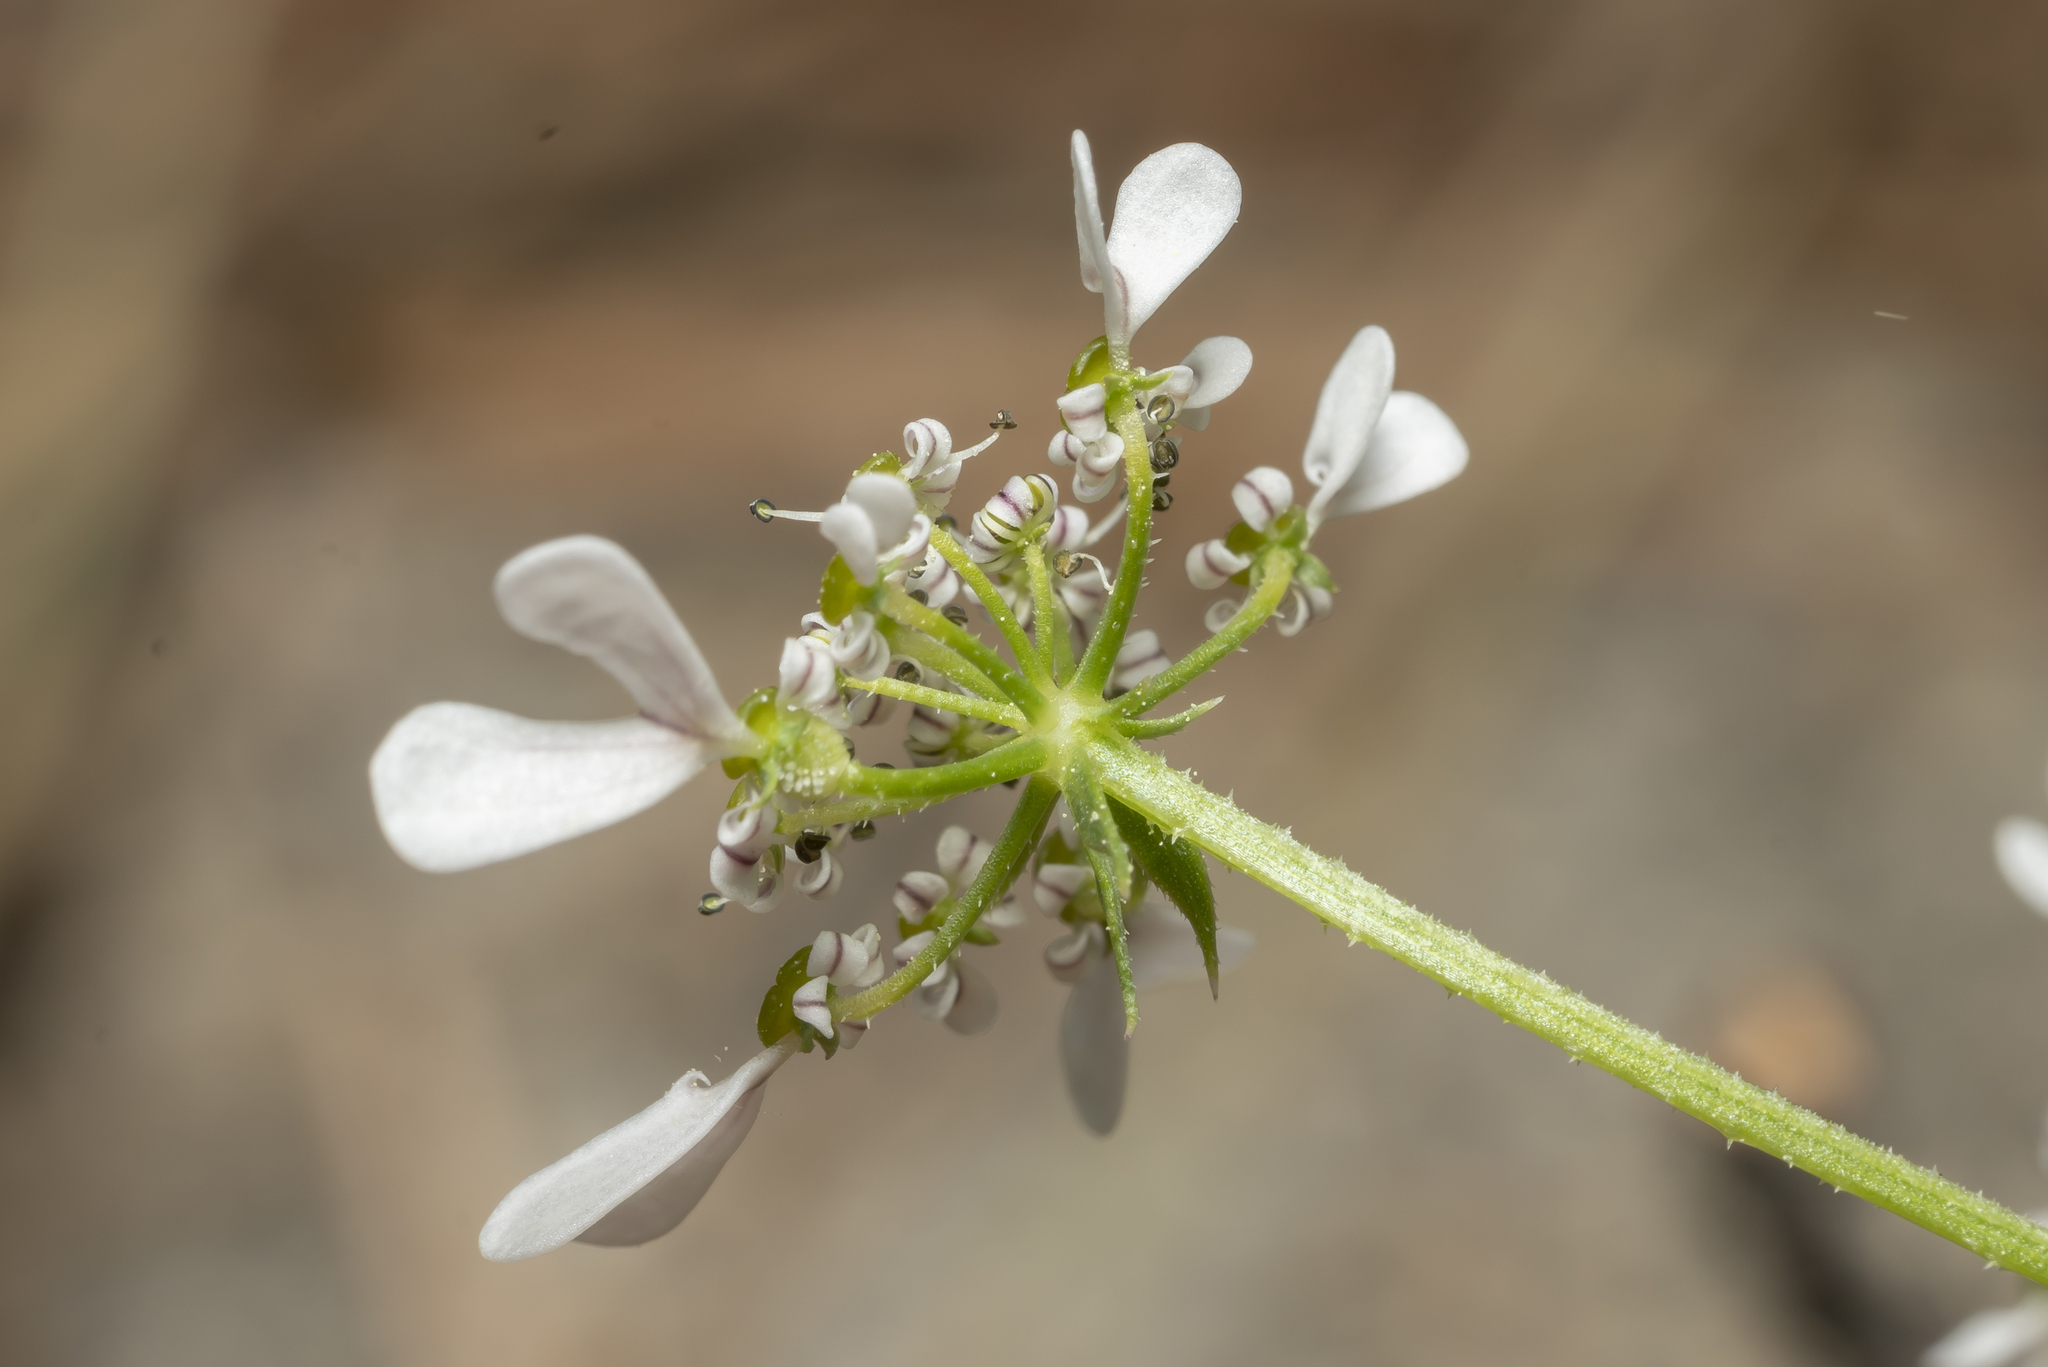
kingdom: Plantae
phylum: Tracheophyta
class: Magnoliopsida
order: Apiales
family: Apiaceae
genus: Tordylium
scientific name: Tordylium apulum
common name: Mediterranean hartwort
